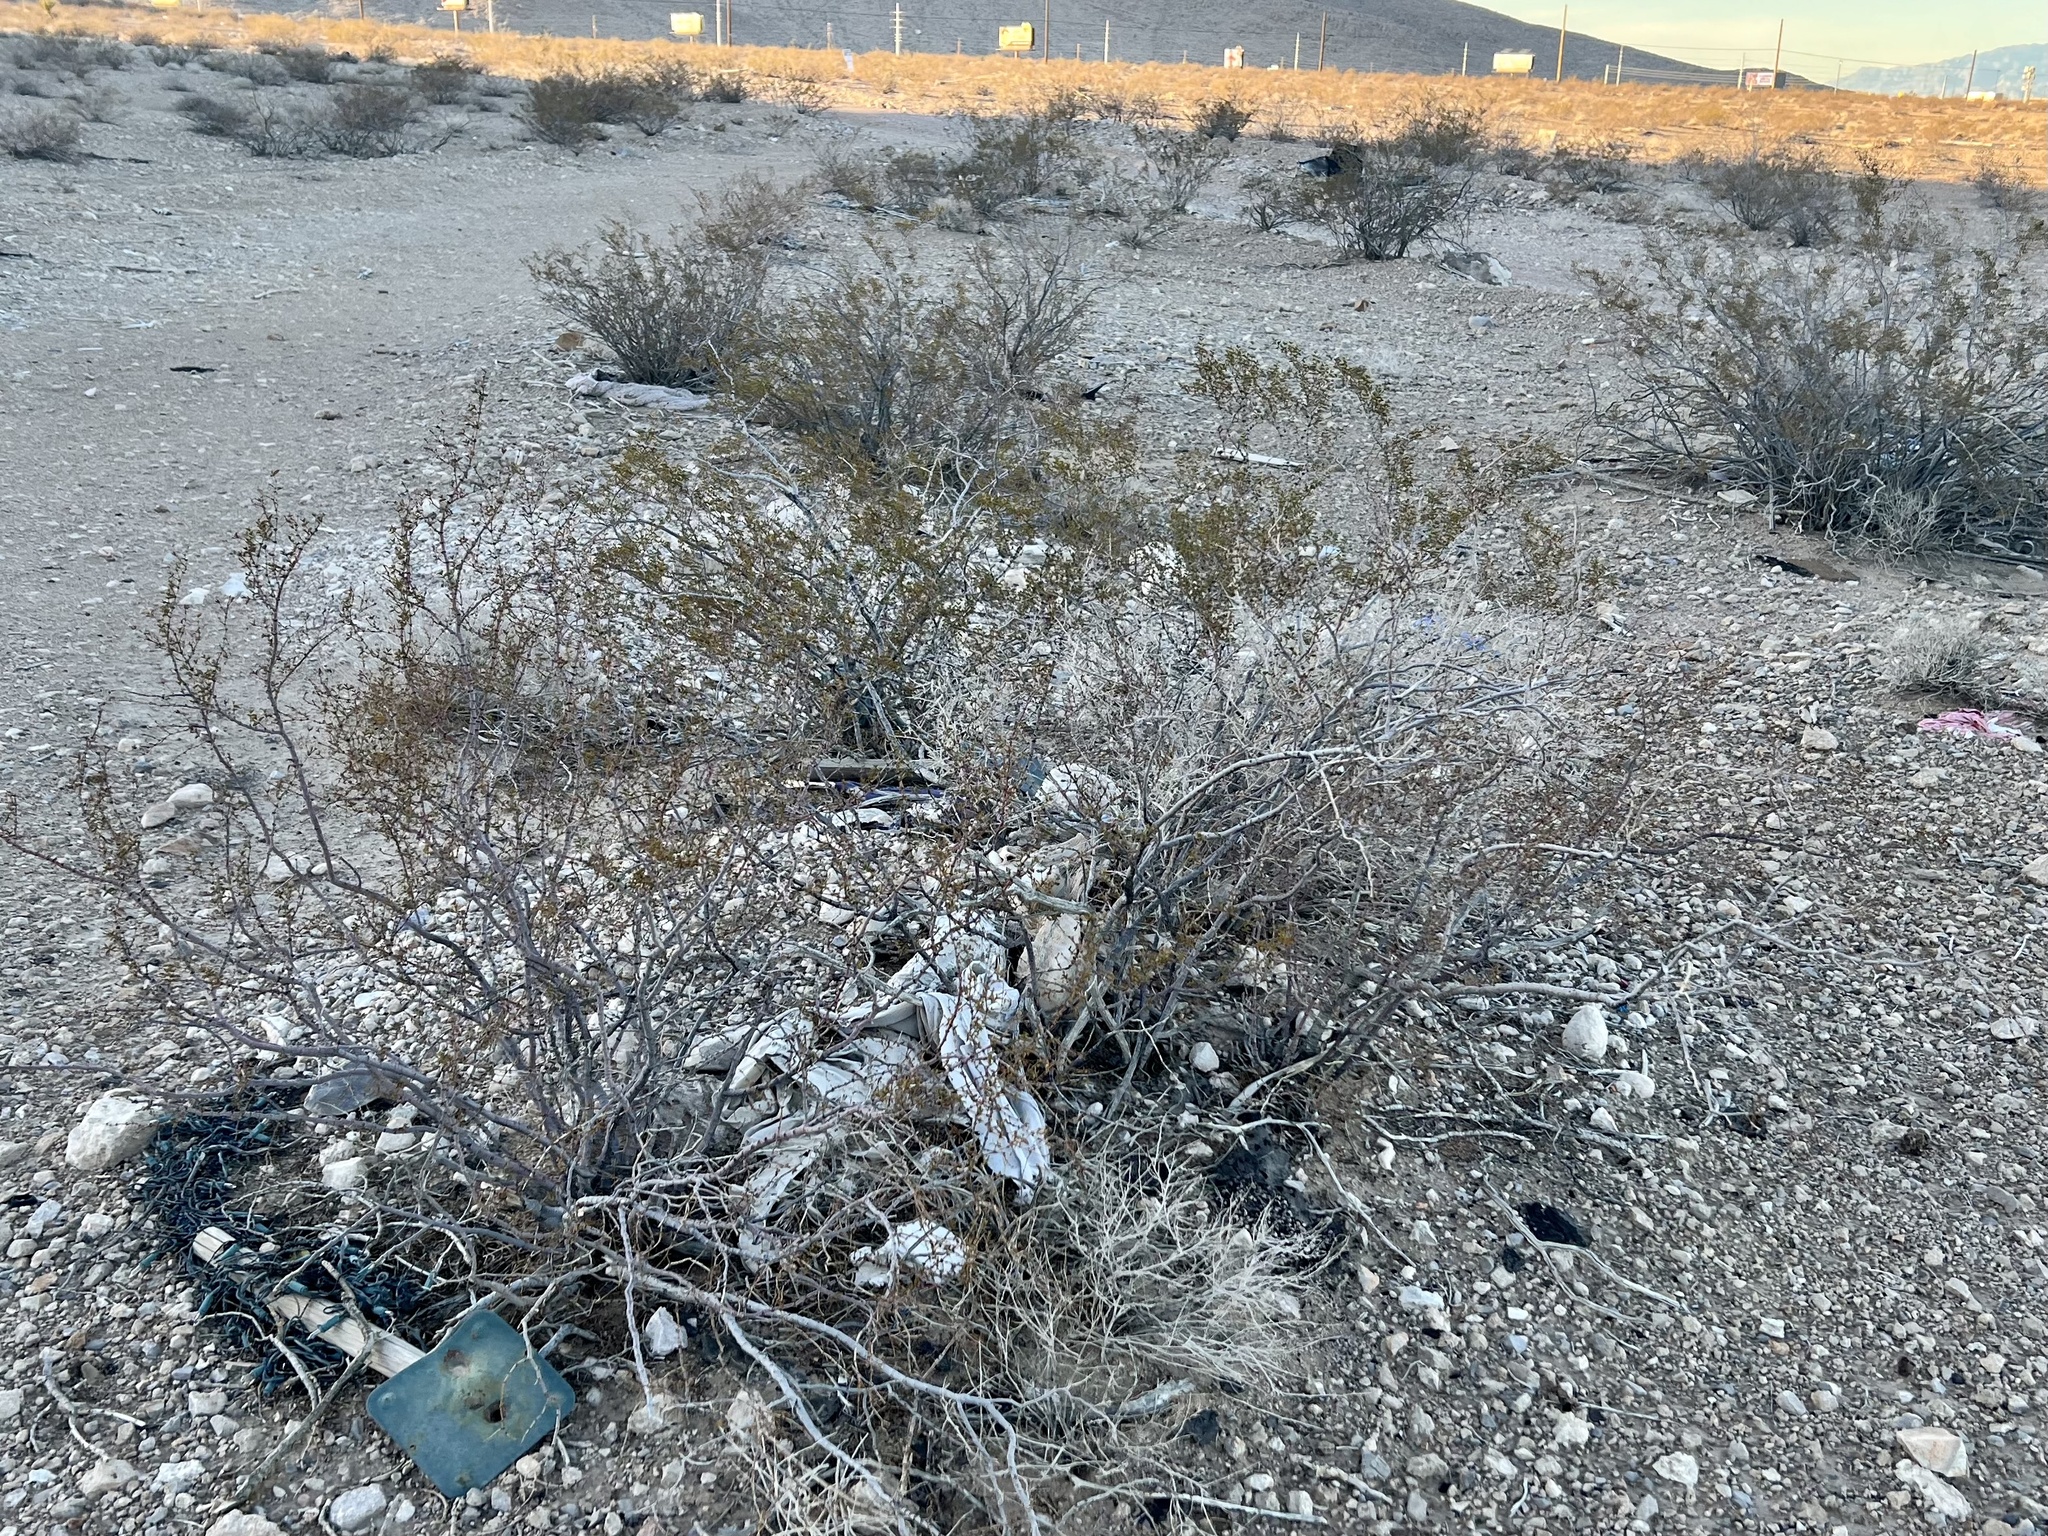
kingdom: Plantae
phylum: Tracheophyta
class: Magnoliopsida
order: Zygophyllales
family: Zygophyllaceae
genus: Larrea
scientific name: Larrea tridentata
